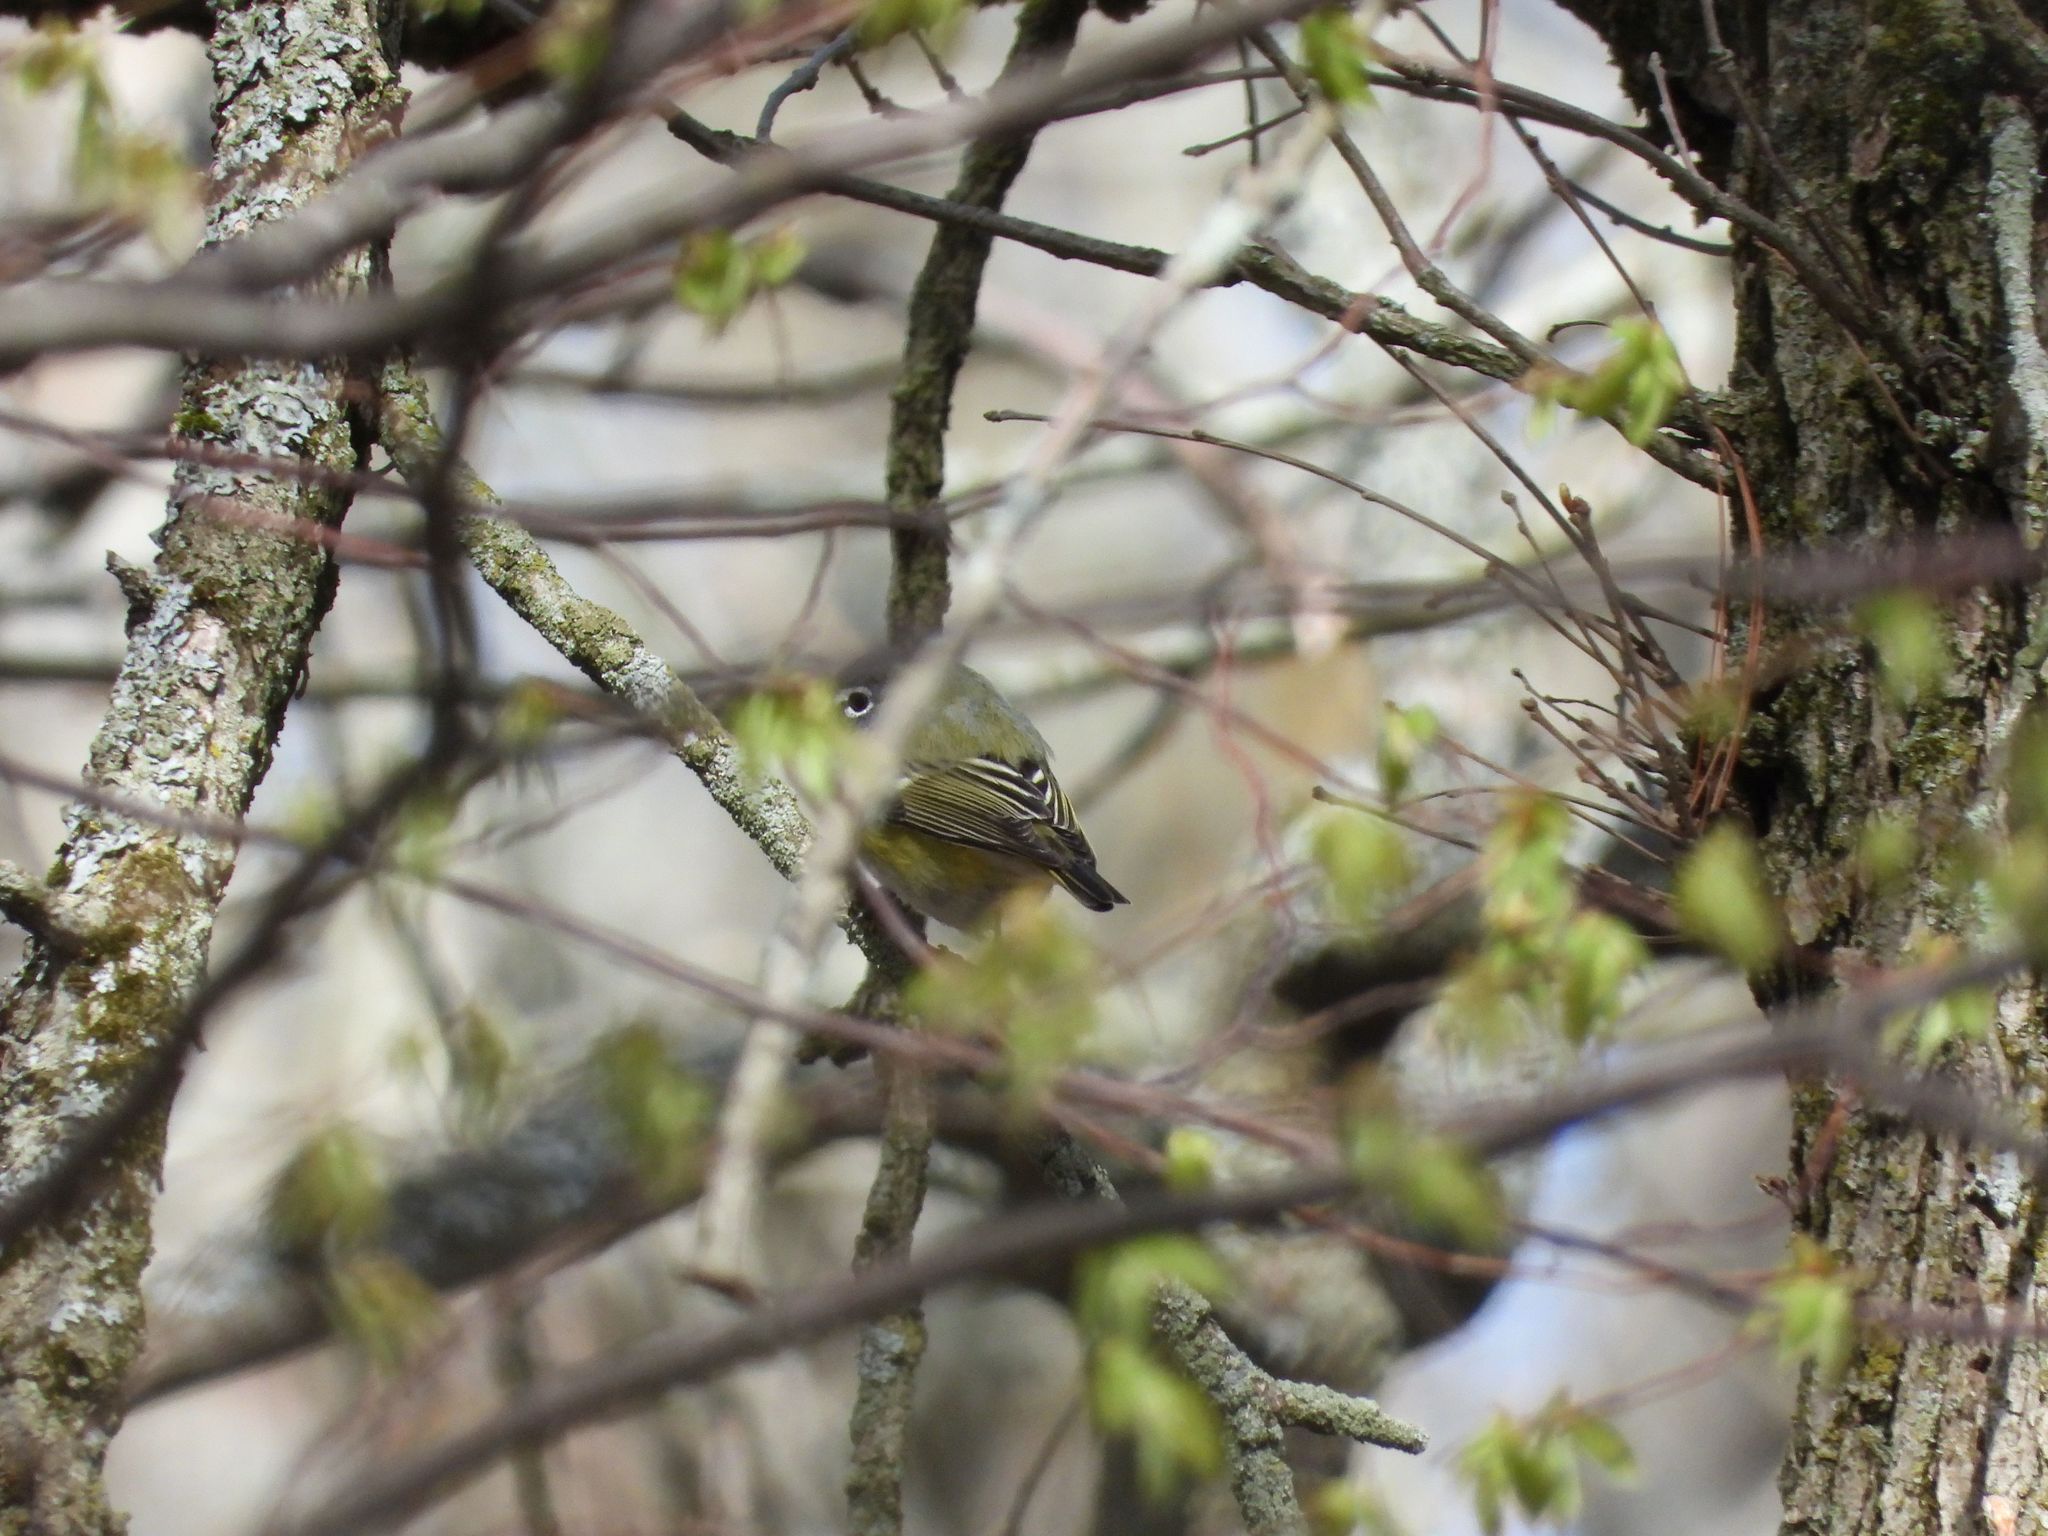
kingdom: Animalia
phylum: Chordata
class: Aves
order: Passeriformes
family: Regulidae
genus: Regulus
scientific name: Regulus calendula
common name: Ruby-crowned kinglet
